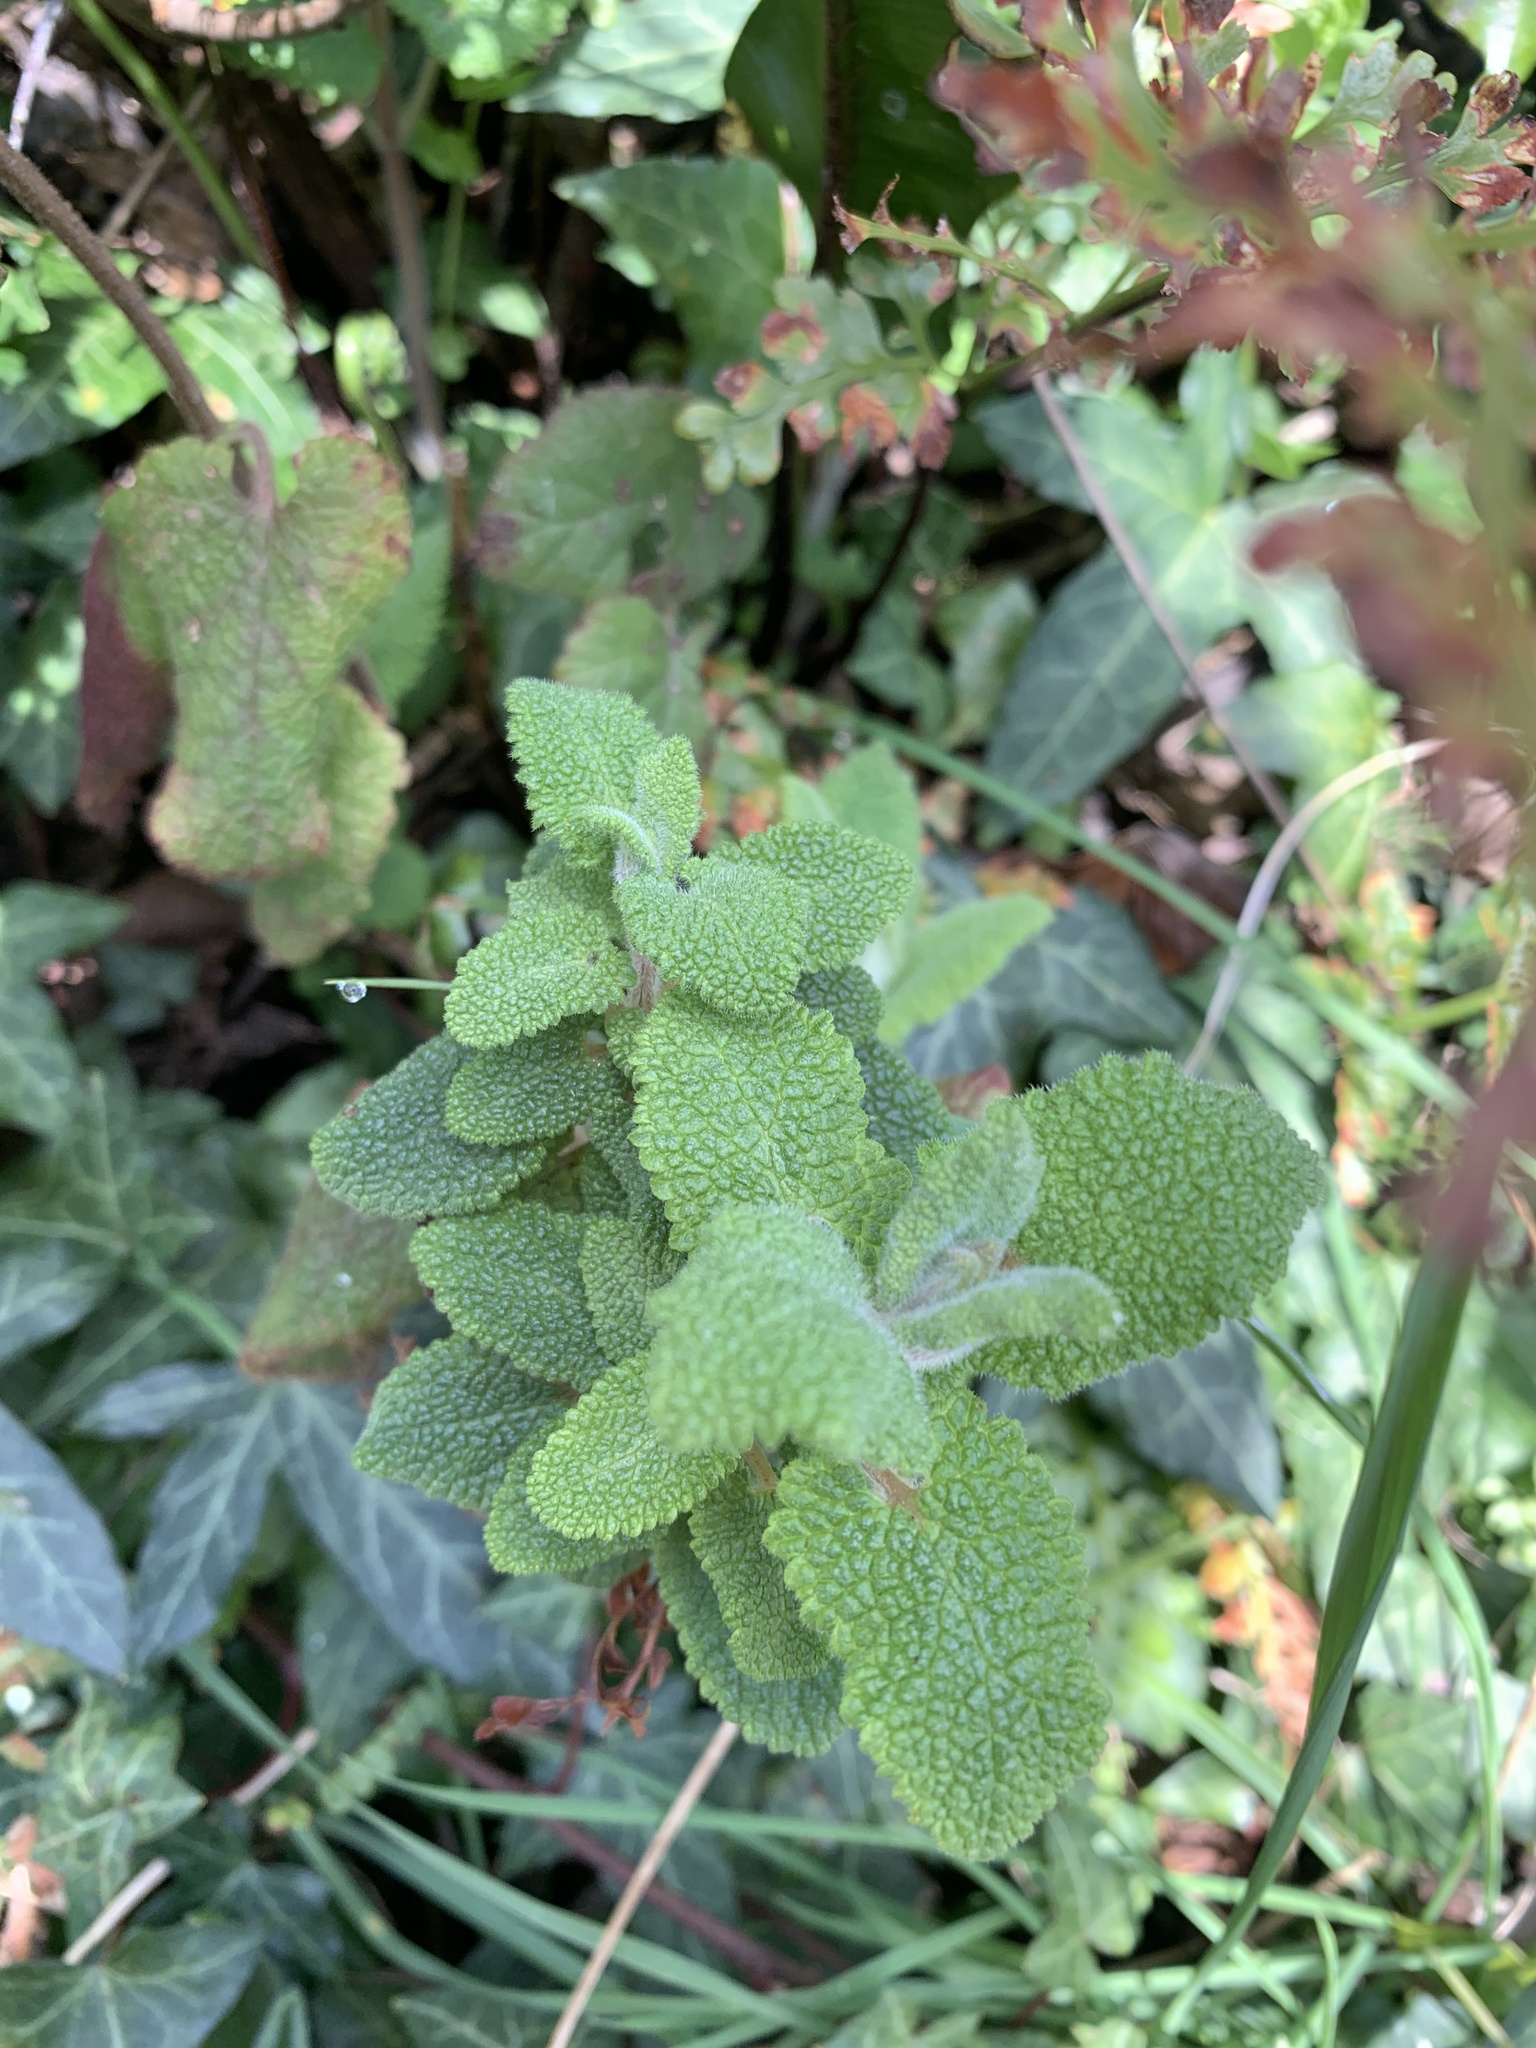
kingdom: Plantae
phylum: Tracheophyta
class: Magnoliopsida
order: Lamiales
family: Lamiaceae
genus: Teucrium
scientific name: Teucrium scorodonia
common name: Woodland germander
